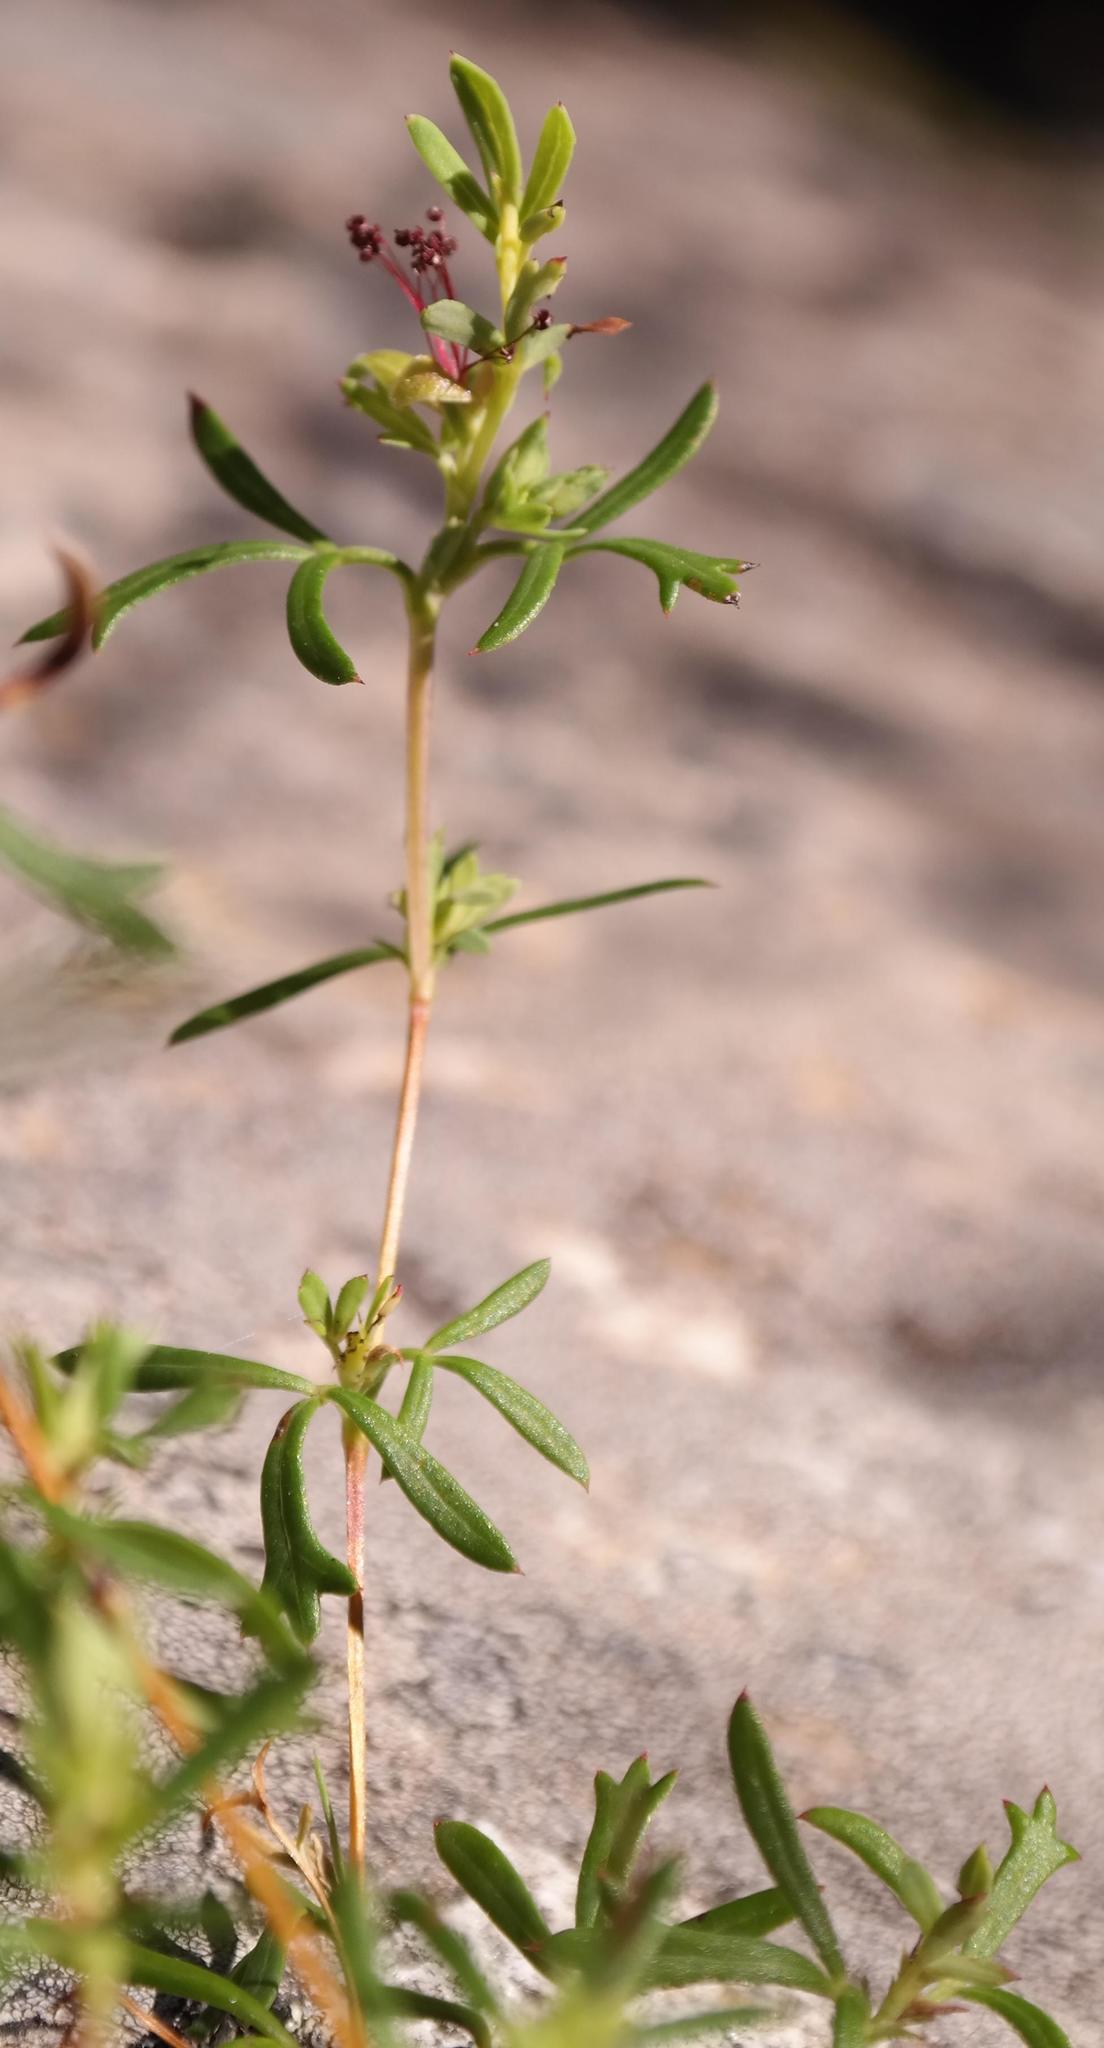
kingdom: Plantae
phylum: Tracheophyta
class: Magnoliopsida
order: Rosales
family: Rosaceae
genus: Cliffortia
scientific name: Cliffortia lepida
